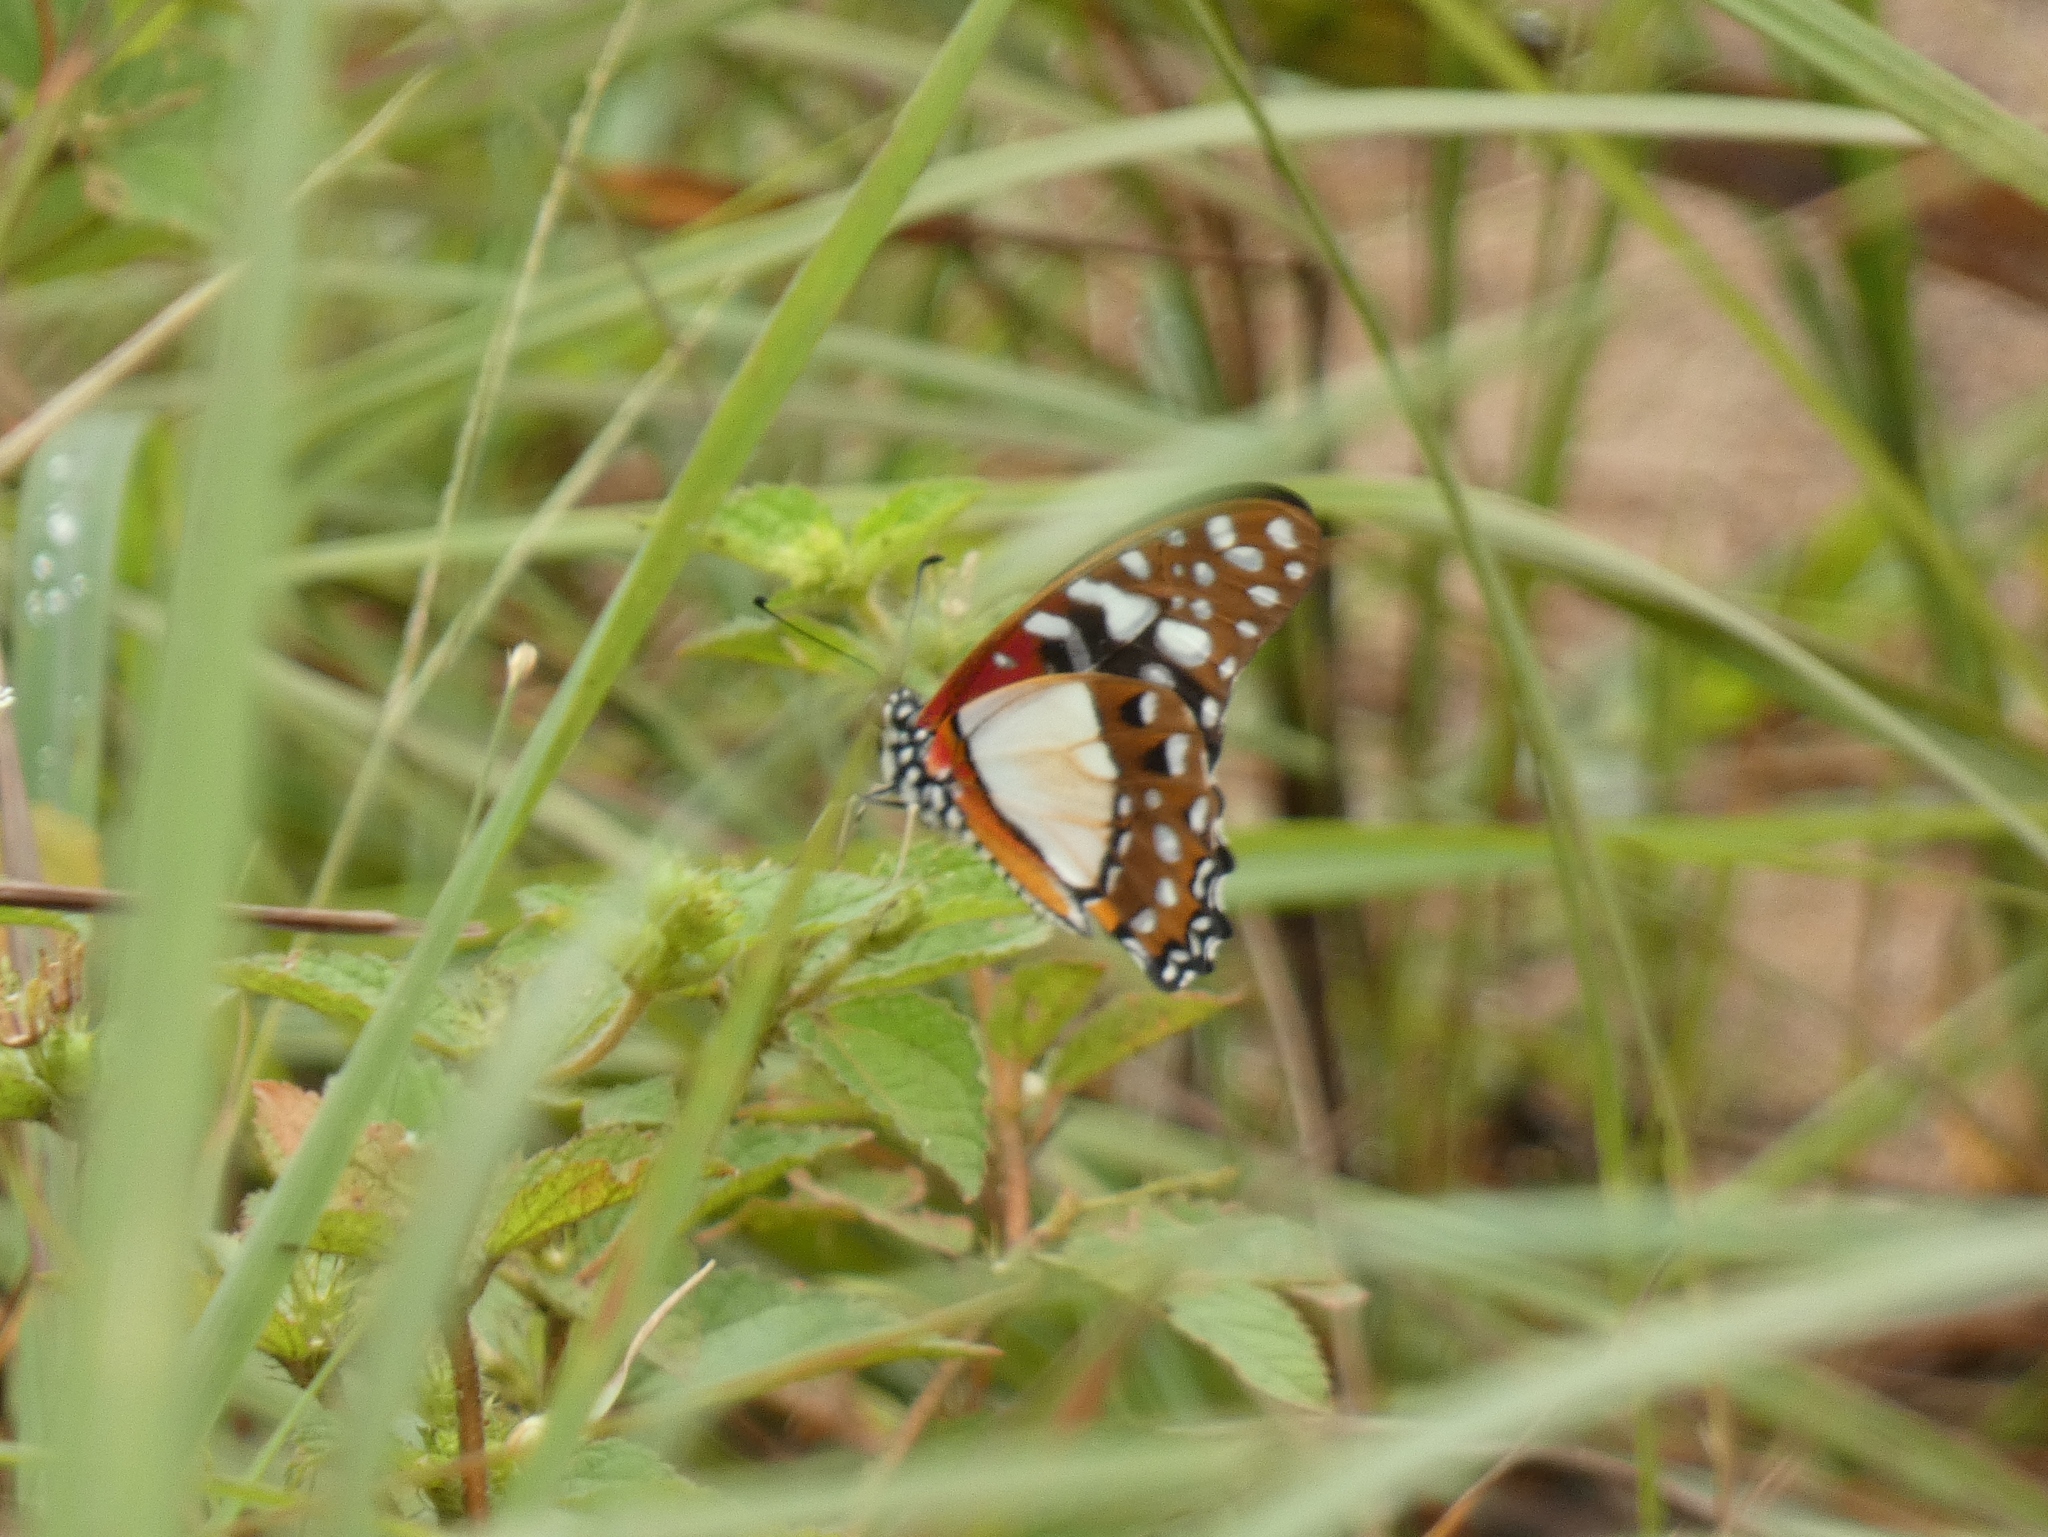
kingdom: Animalia
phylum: Arthropoda
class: Insecta
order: Lepidoptera
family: Papilionidae
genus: Graphium
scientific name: Graphium angolanus
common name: Angola white-lady swordtail
